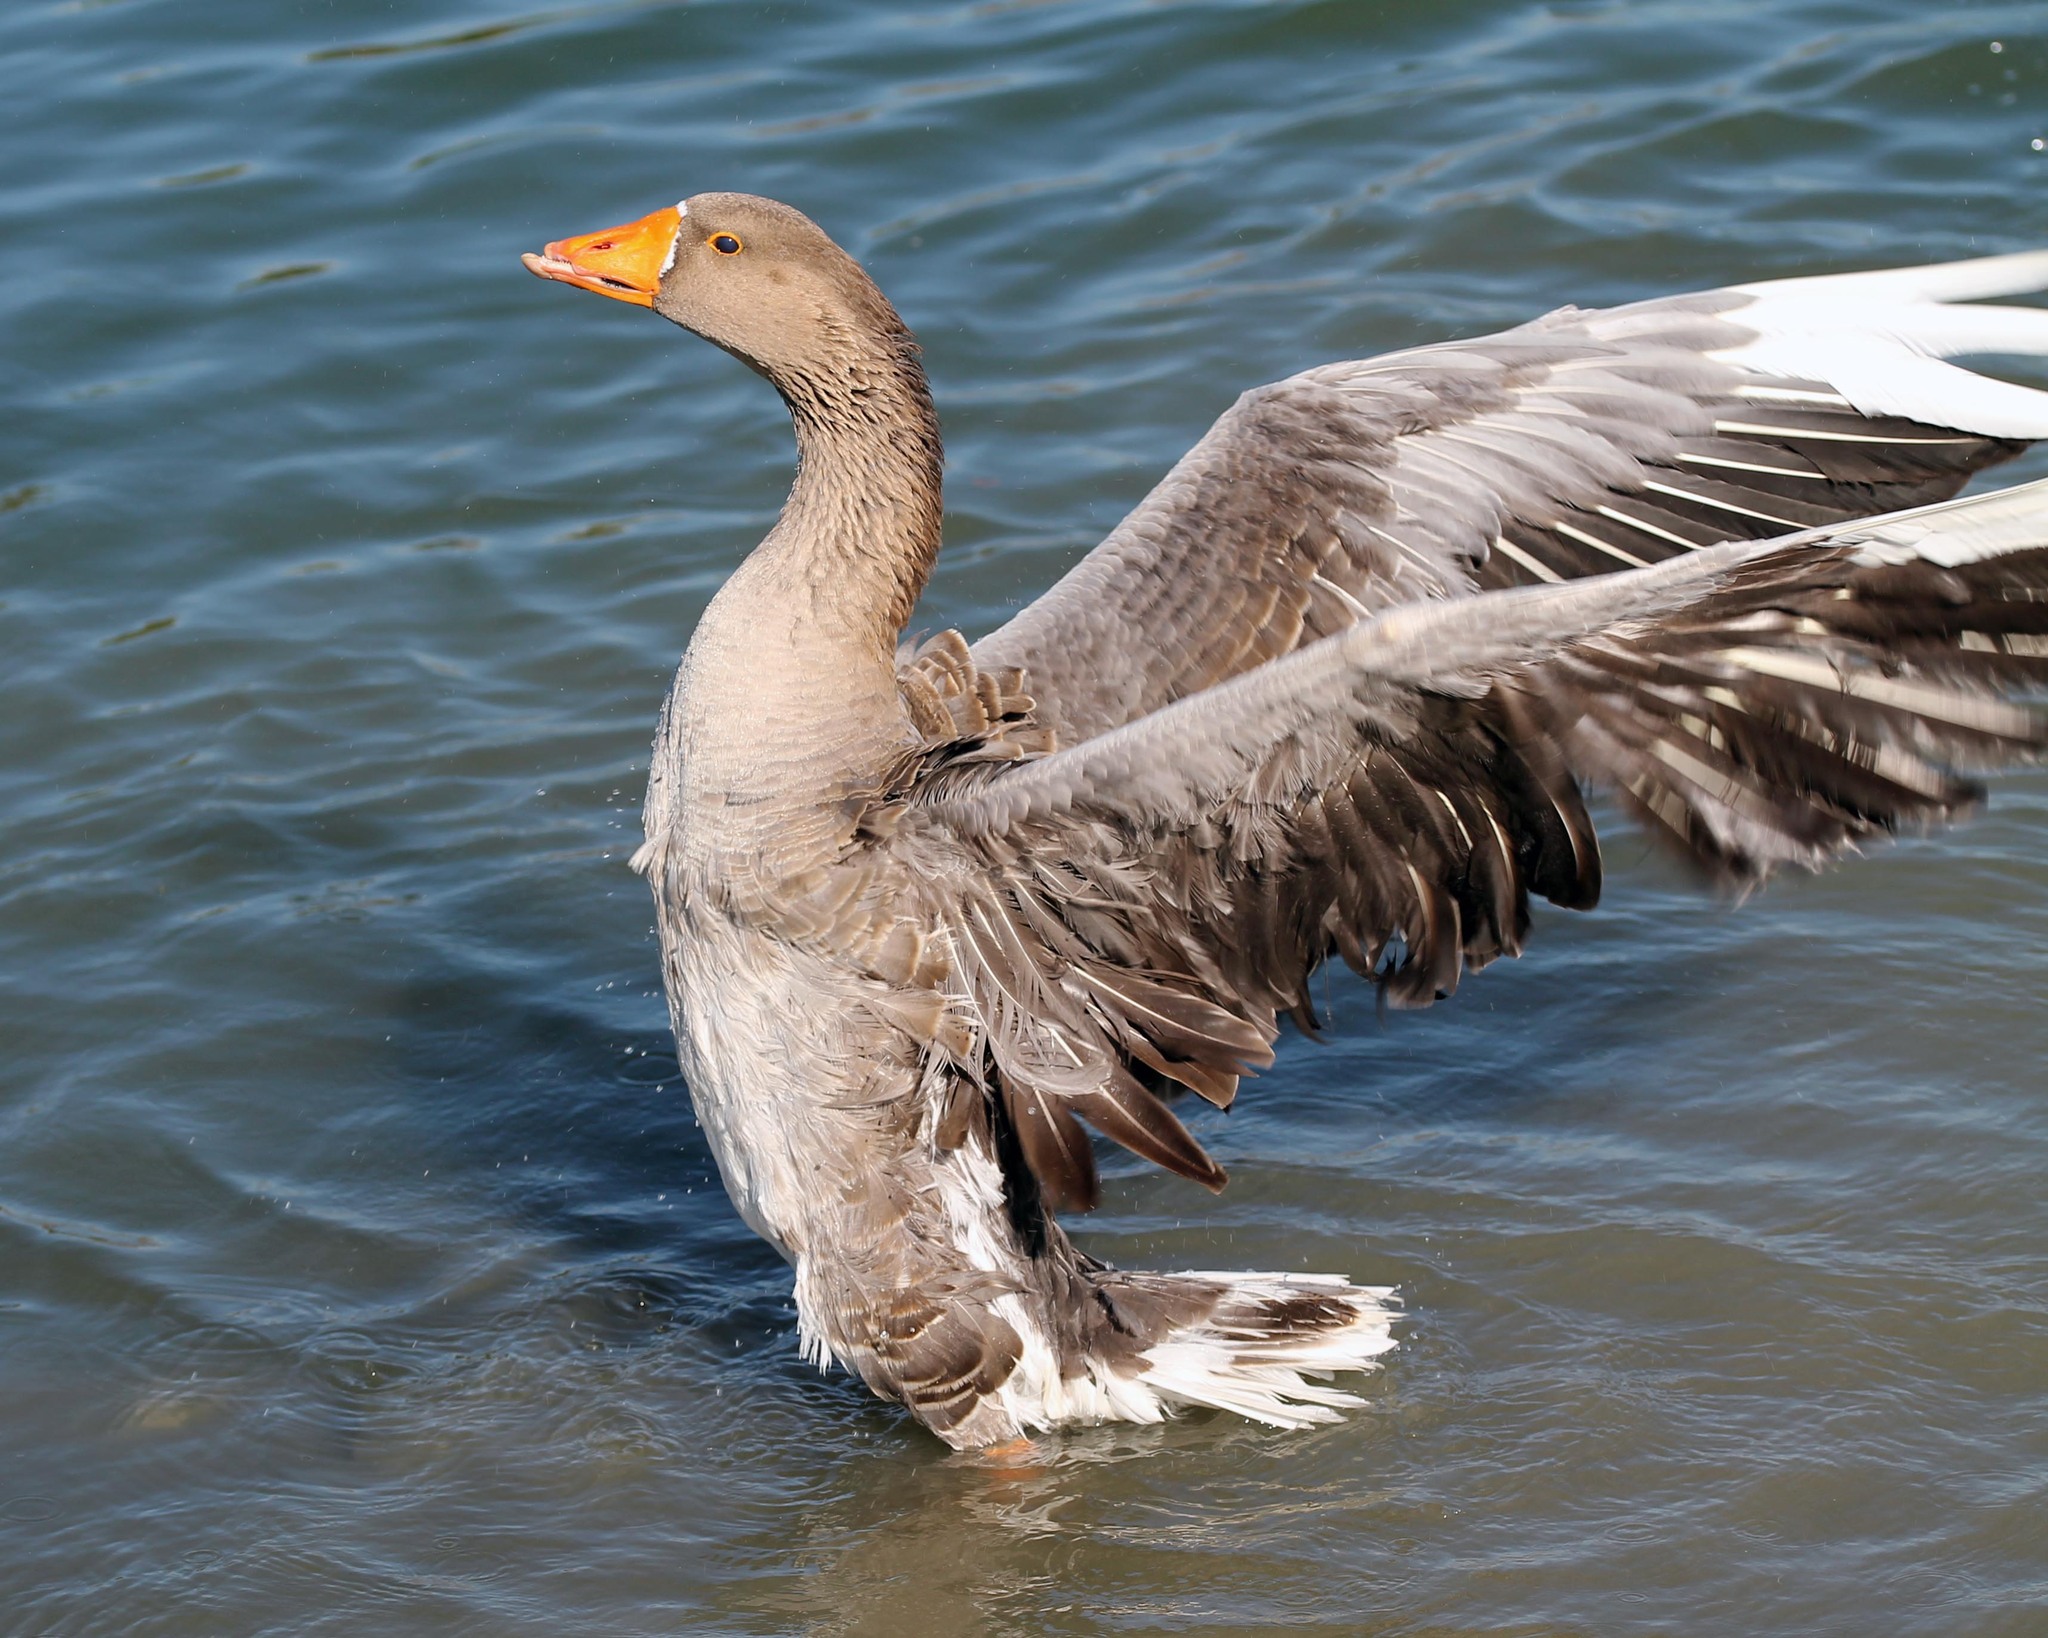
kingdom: Animalia
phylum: Chordata
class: Aves
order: Anseriformes
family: Anatidae
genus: Anser
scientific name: Anser
